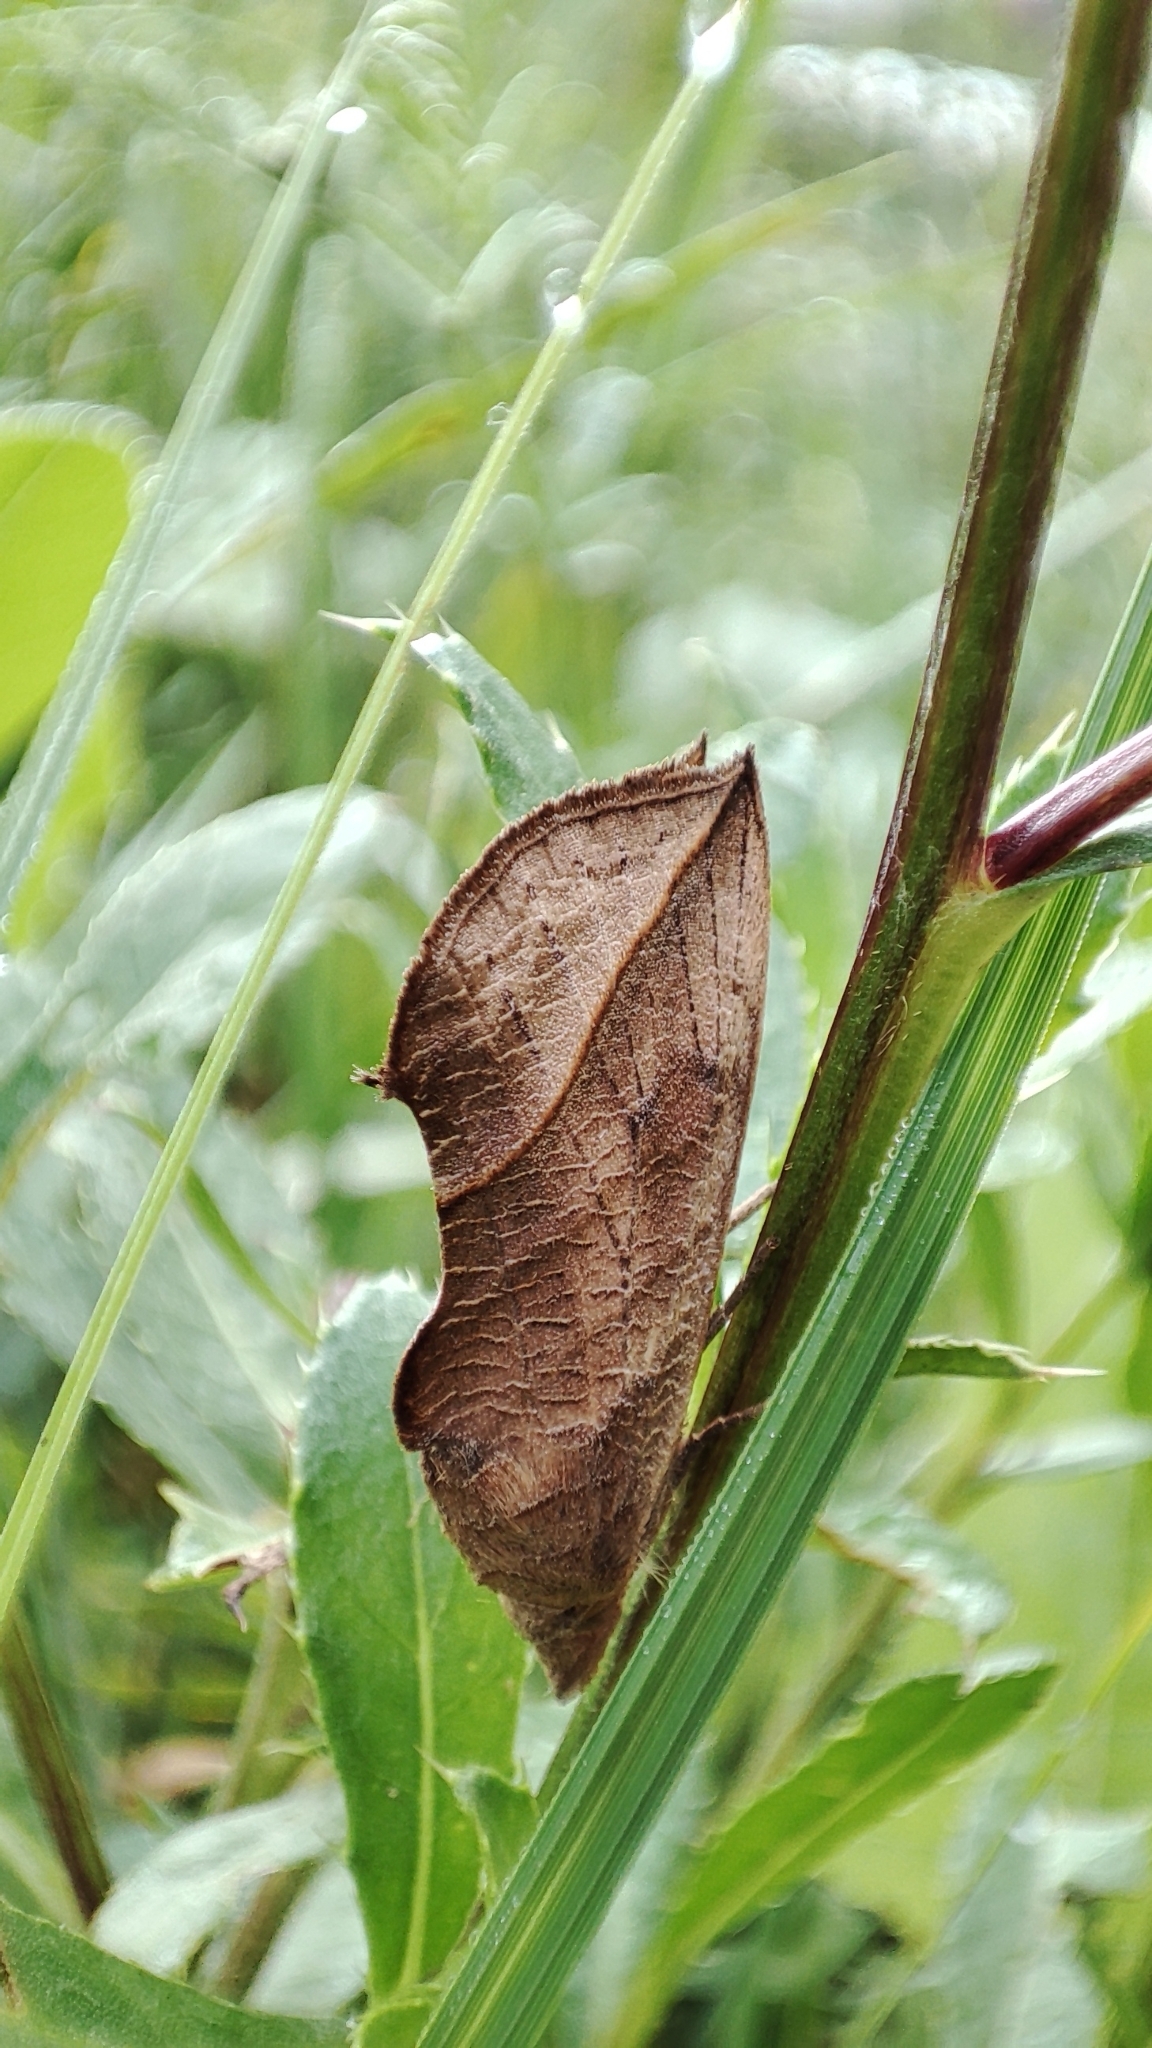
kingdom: Animalia
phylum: Arthropoda
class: Insecta
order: Lepidoptera
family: Erebidae
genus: Calyptra
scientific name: Calyptra thalictri
